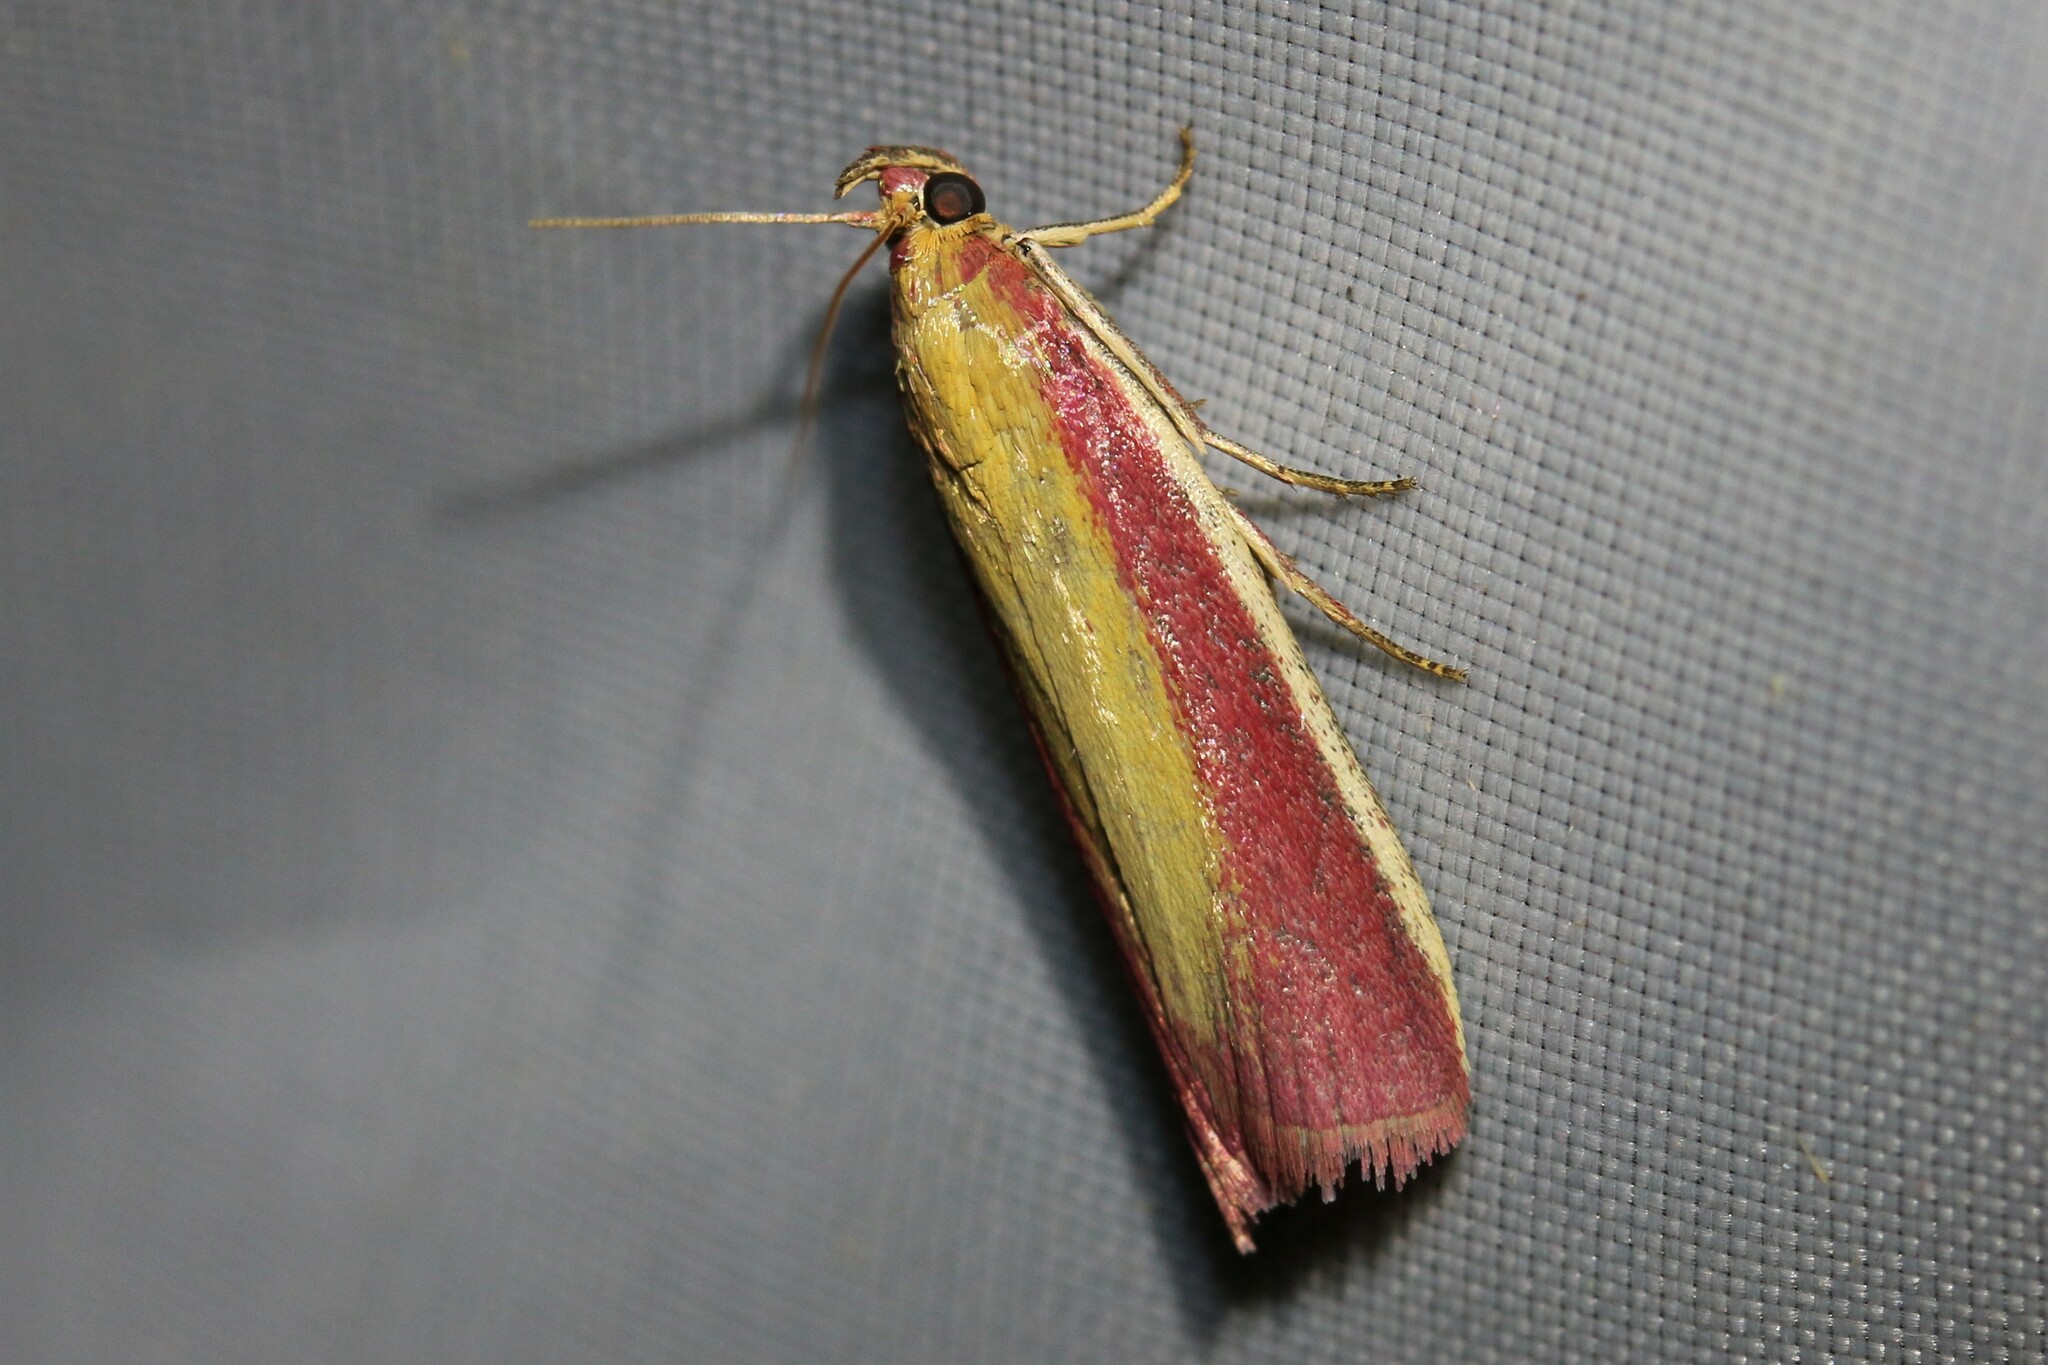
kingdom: Animalia
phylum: Arthropoda
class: Insecta
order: Lepidoptera
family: Pyralidae
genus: Oncocera
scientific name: Oncocera semirubella
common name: Rosy-striped knot-horn
